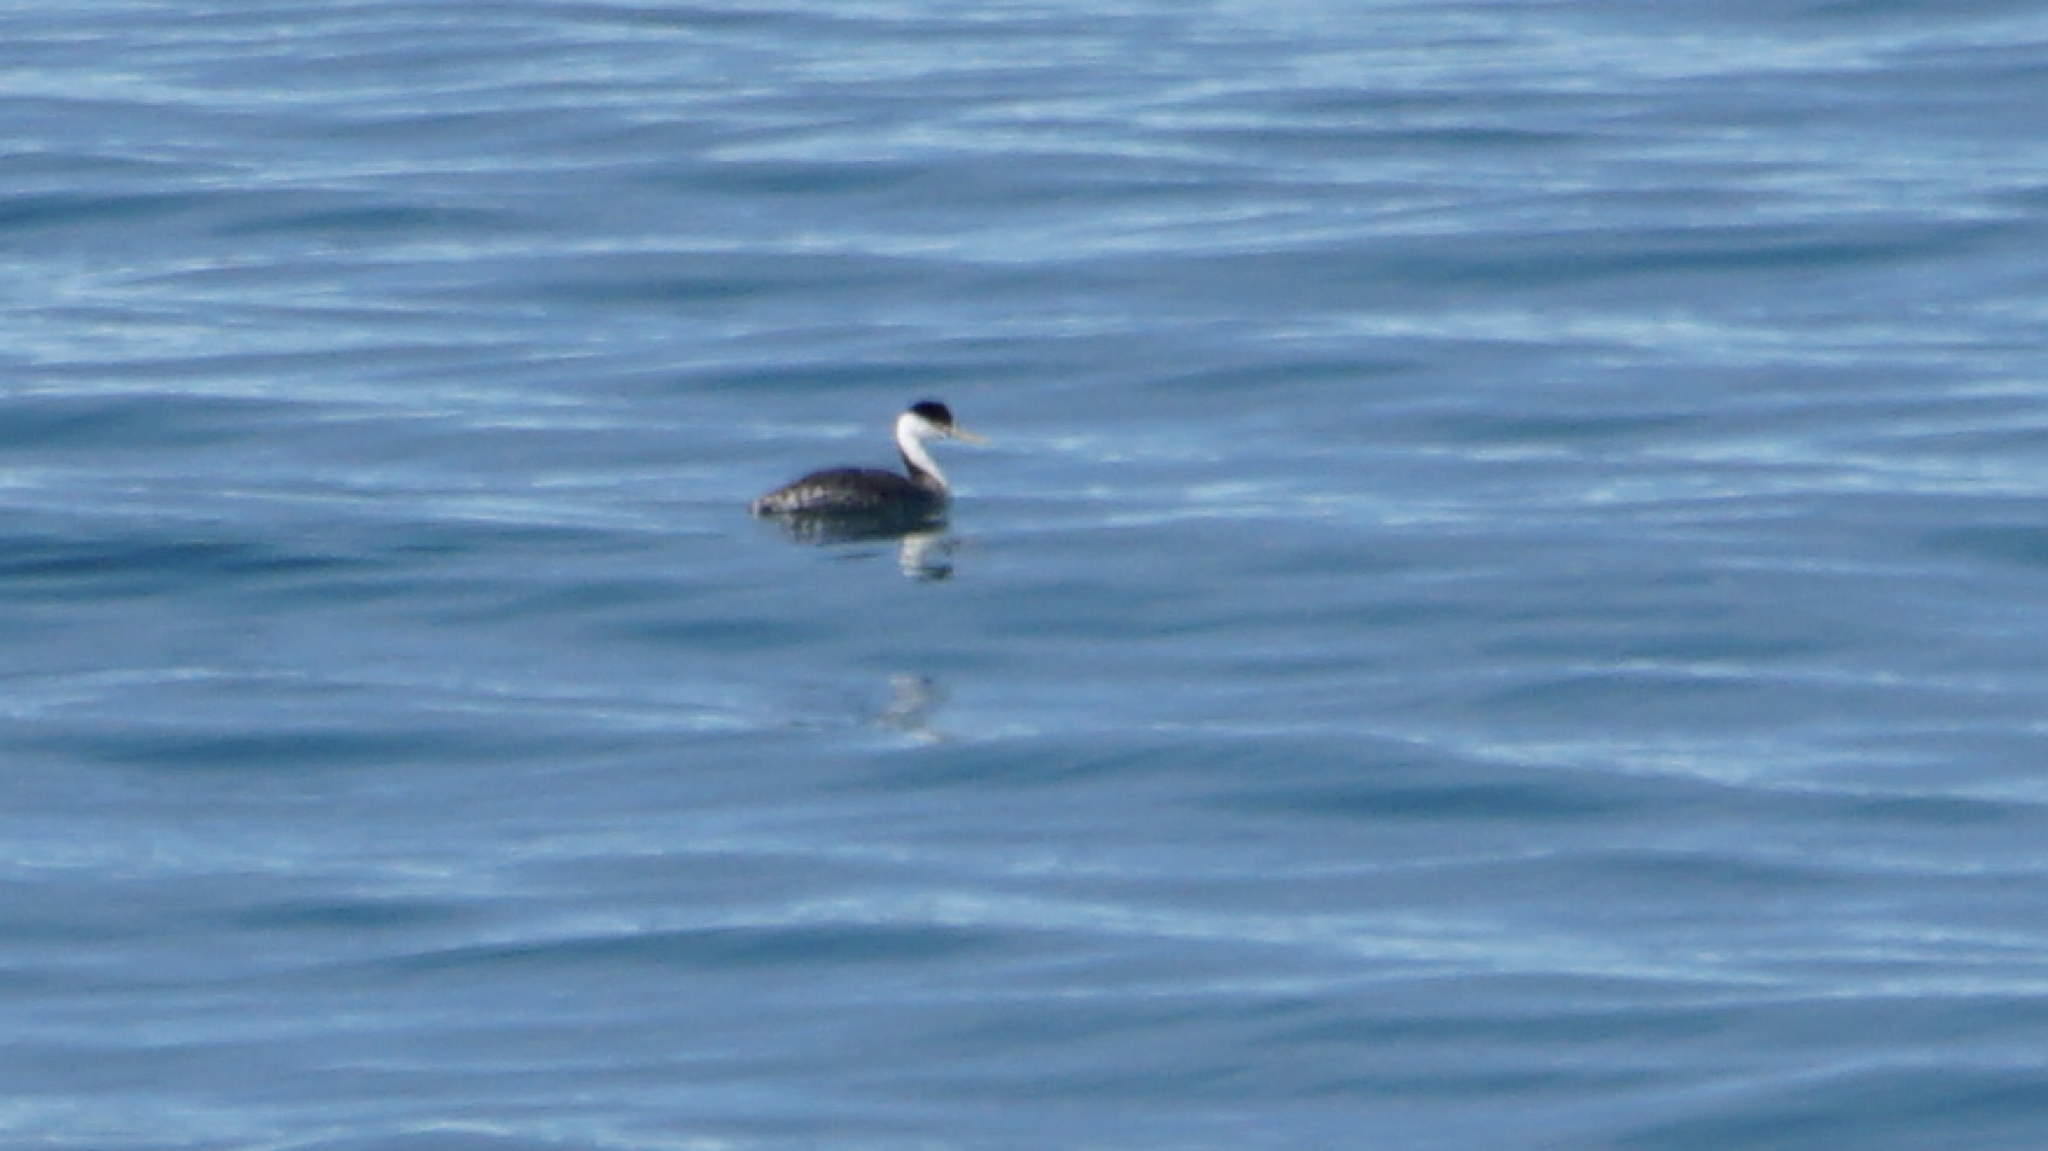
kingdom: Animalia
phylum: Chordata
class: Aves
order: Podicipediformes
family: Podicipedidae
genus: Aechmophorus
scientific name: Aechmophorus occidentalis
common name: Western grebe
